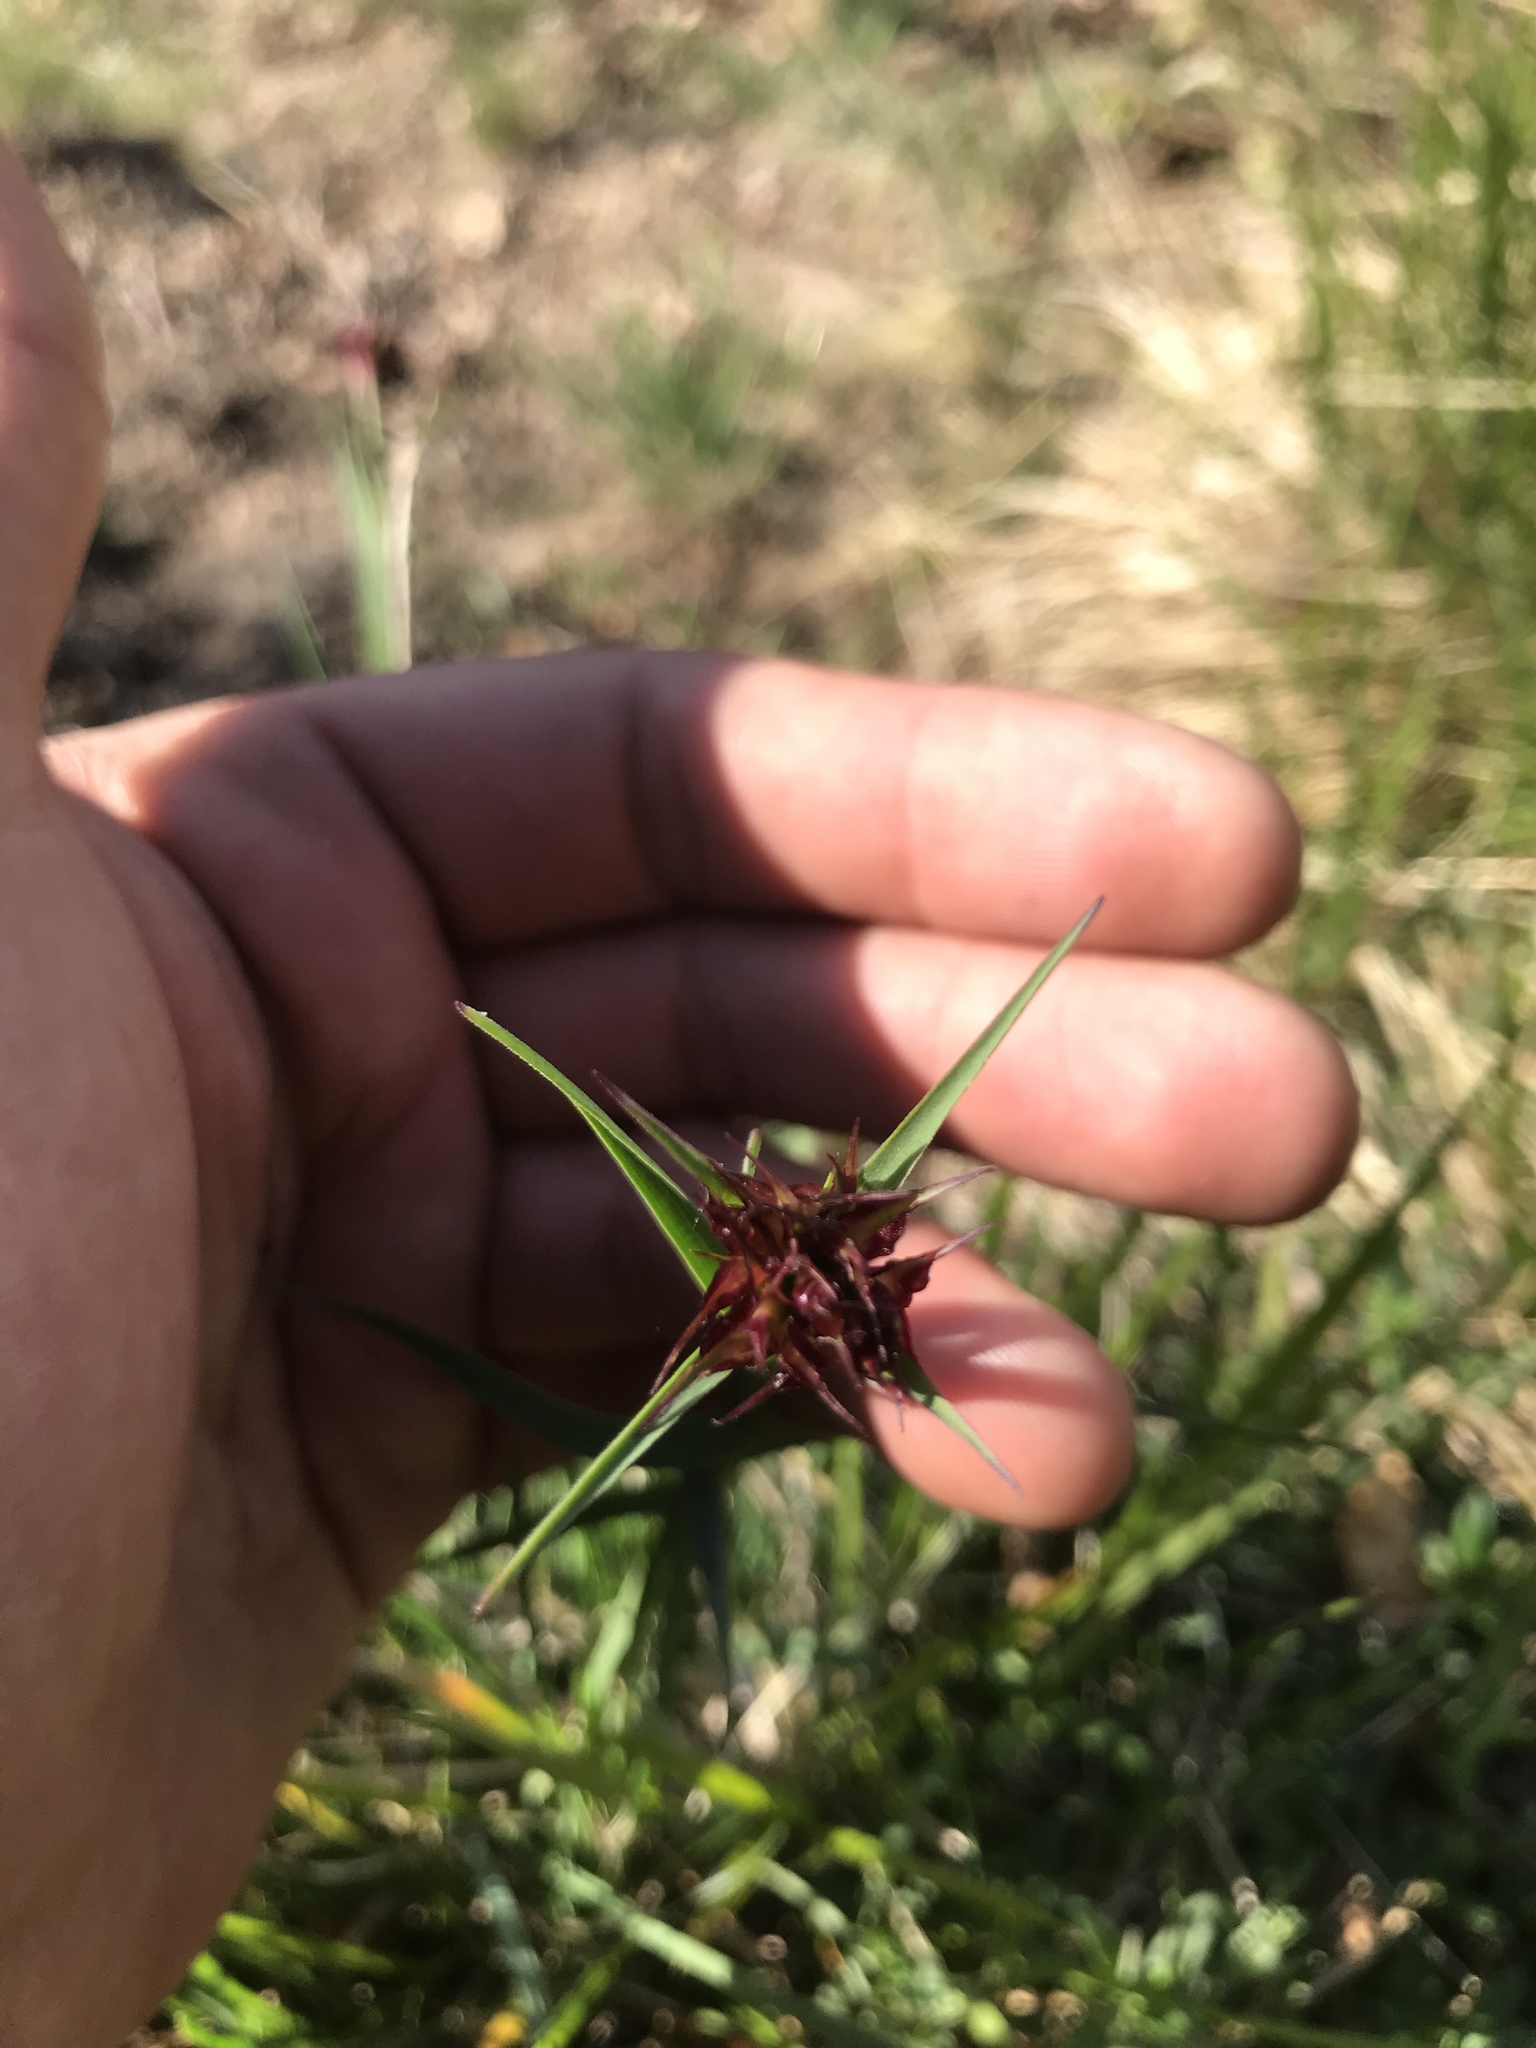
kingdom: Plantae
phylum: Tracheophyta
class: Magnoliopsida
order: Caryophyllales
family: Caryophyllaceae
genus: Dianthus
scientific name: Dianthus carthusianorum
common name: Carthusian pink
